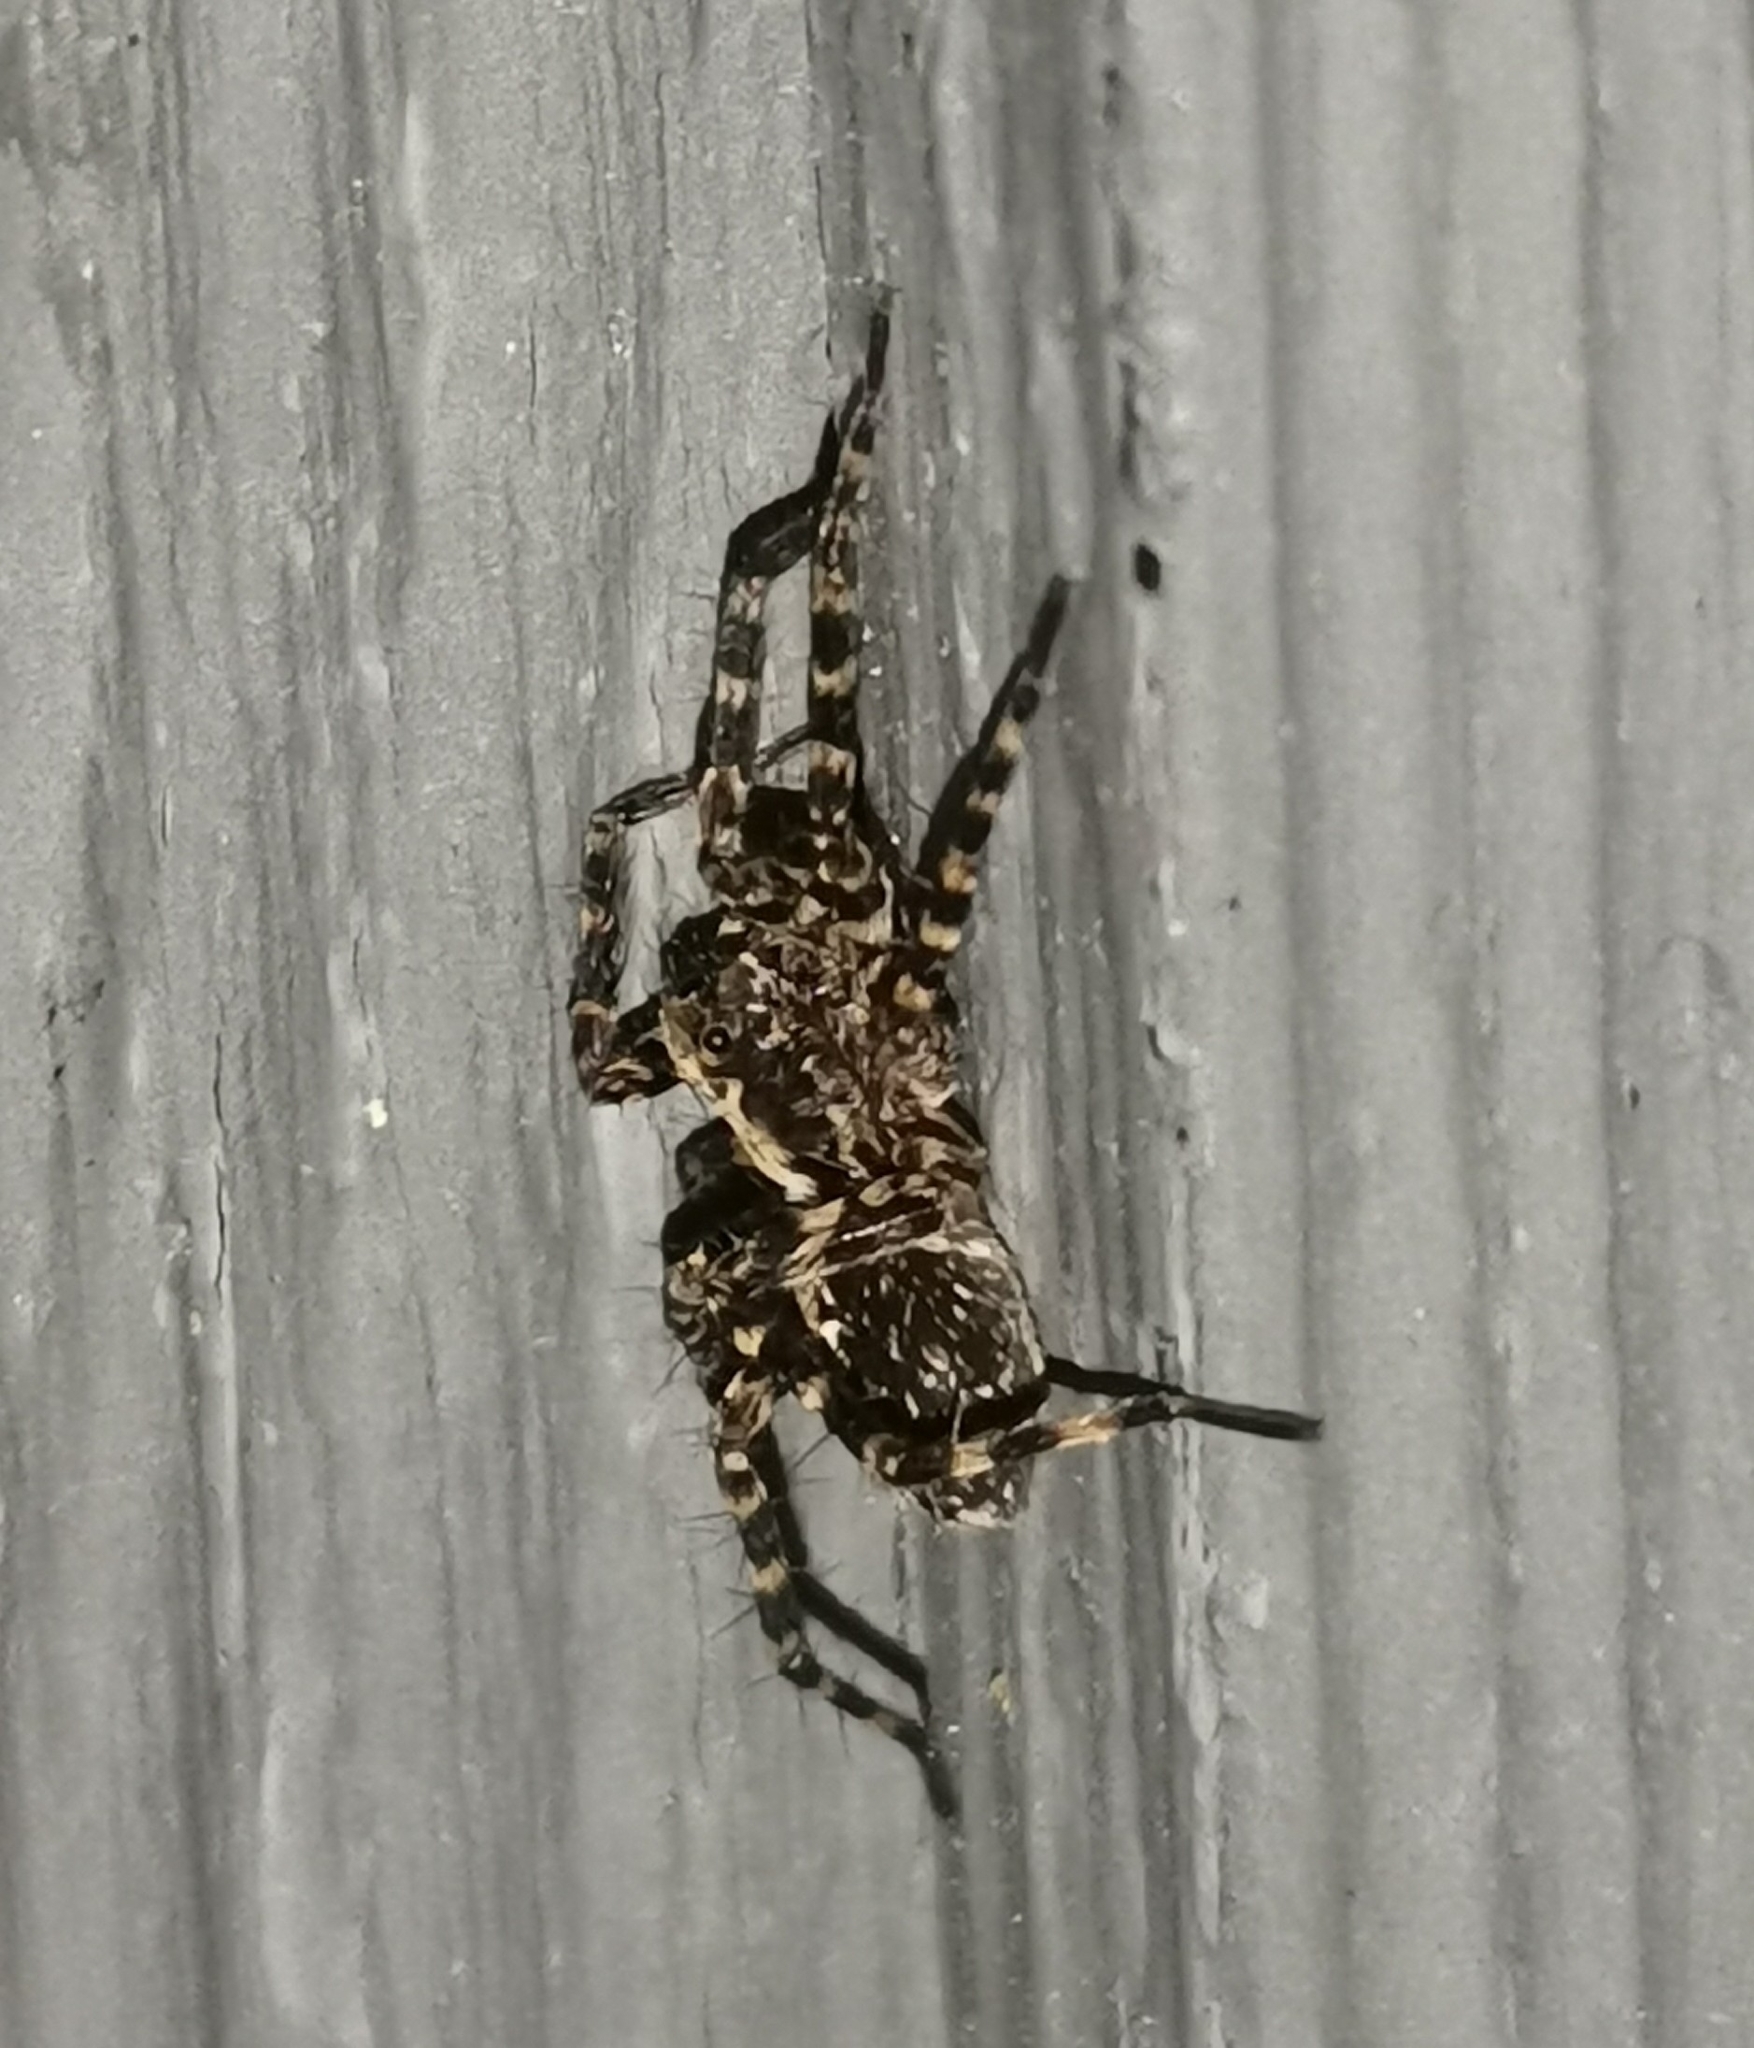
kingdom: Animalia
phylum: Arthropoda
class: Arachnida
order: Araneae
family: Lycosidae
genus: Acantholycosa
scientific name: Acantholycosa lignaria
